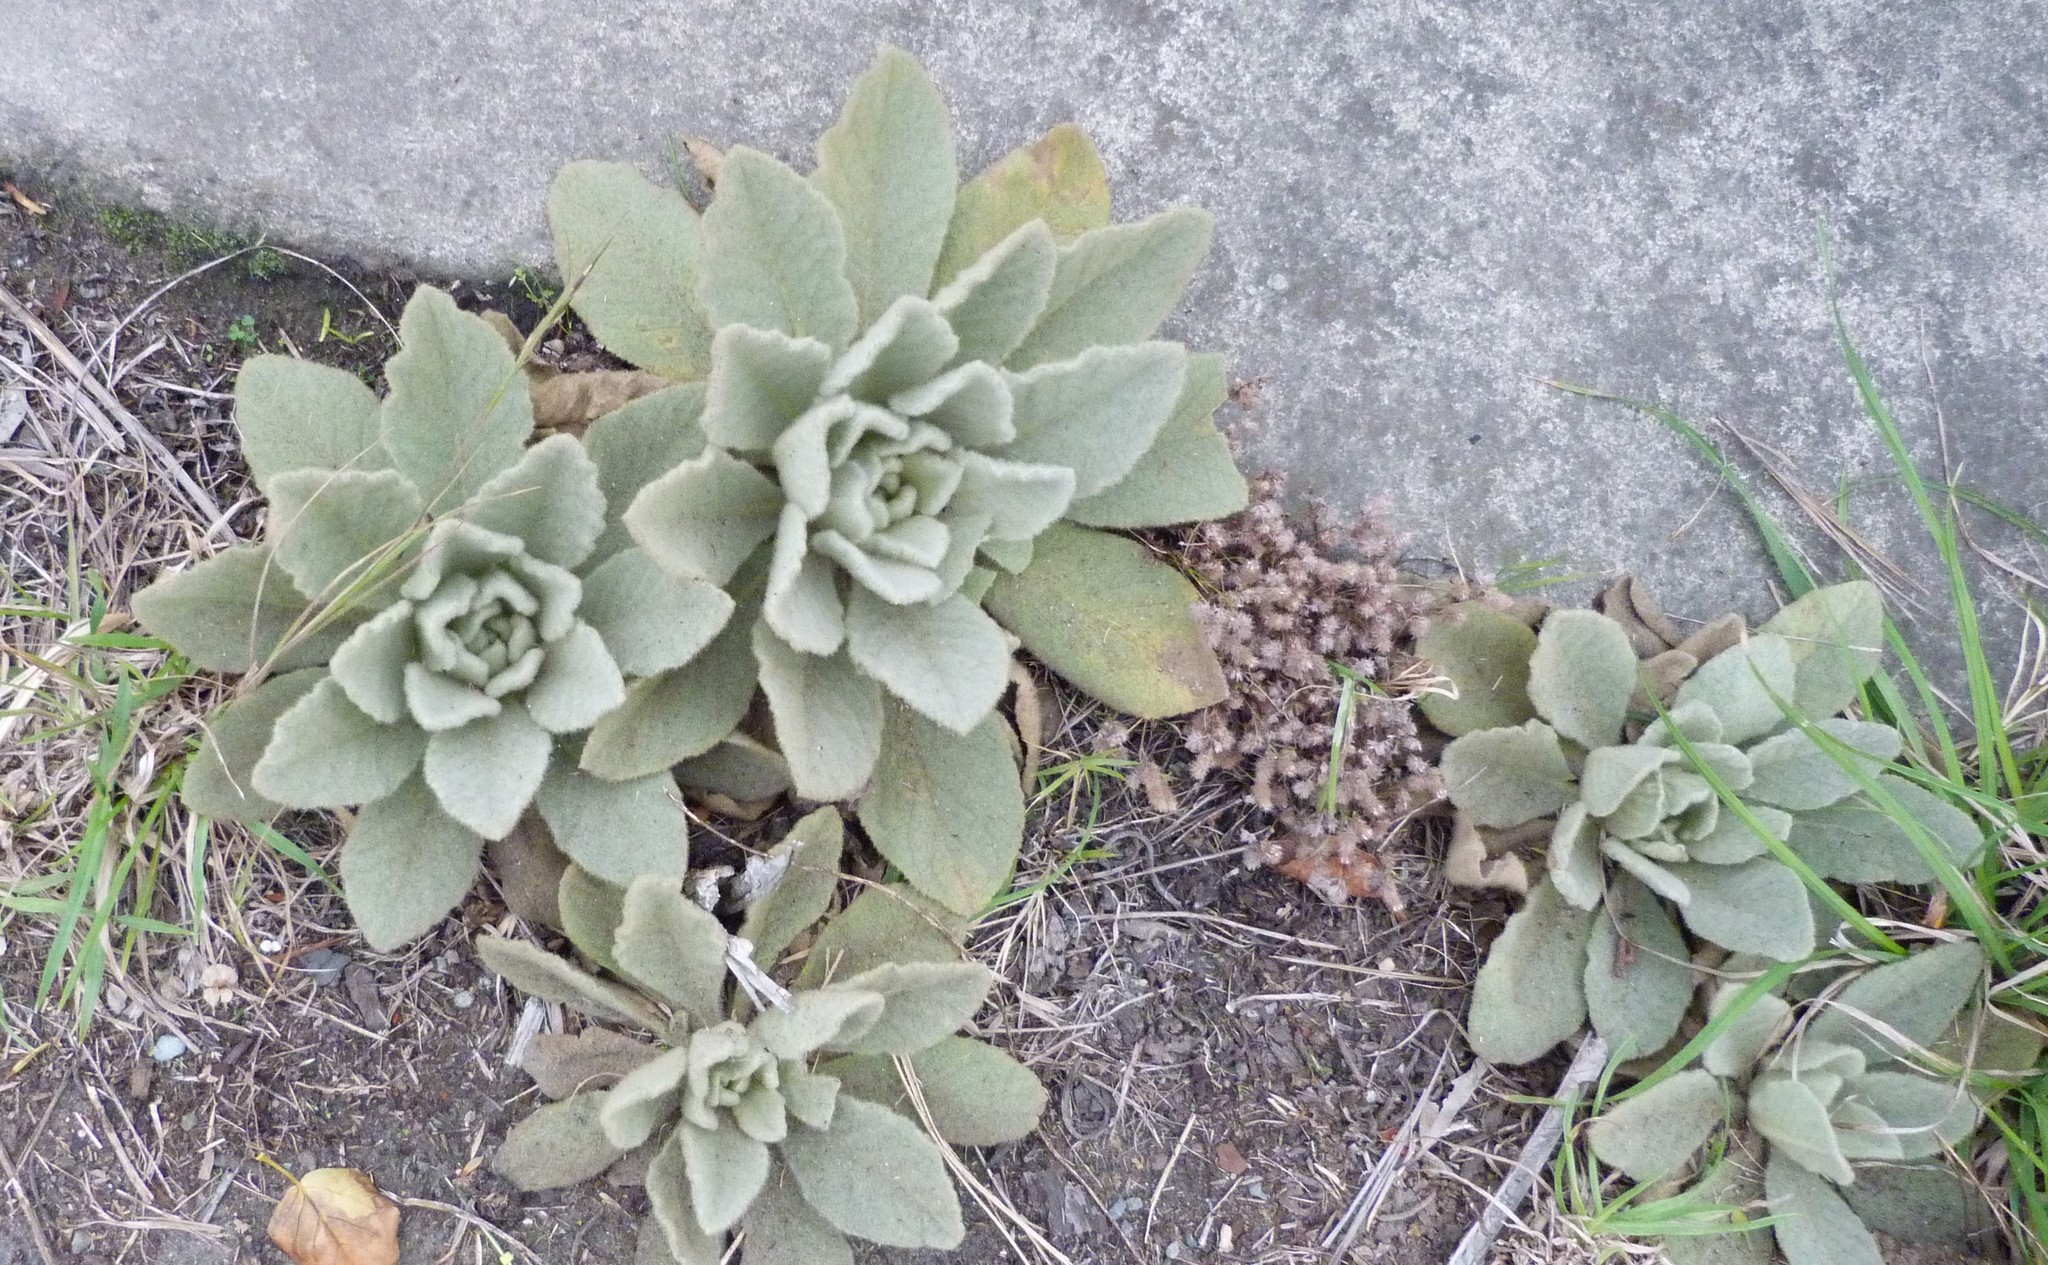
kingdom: Plantae
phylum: Tracheophyta
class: Magnoliopsida
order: Lamiales
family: Scrophulariaceae
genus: Verbascum
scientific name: Verbascum thapsus
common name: Common mullein
